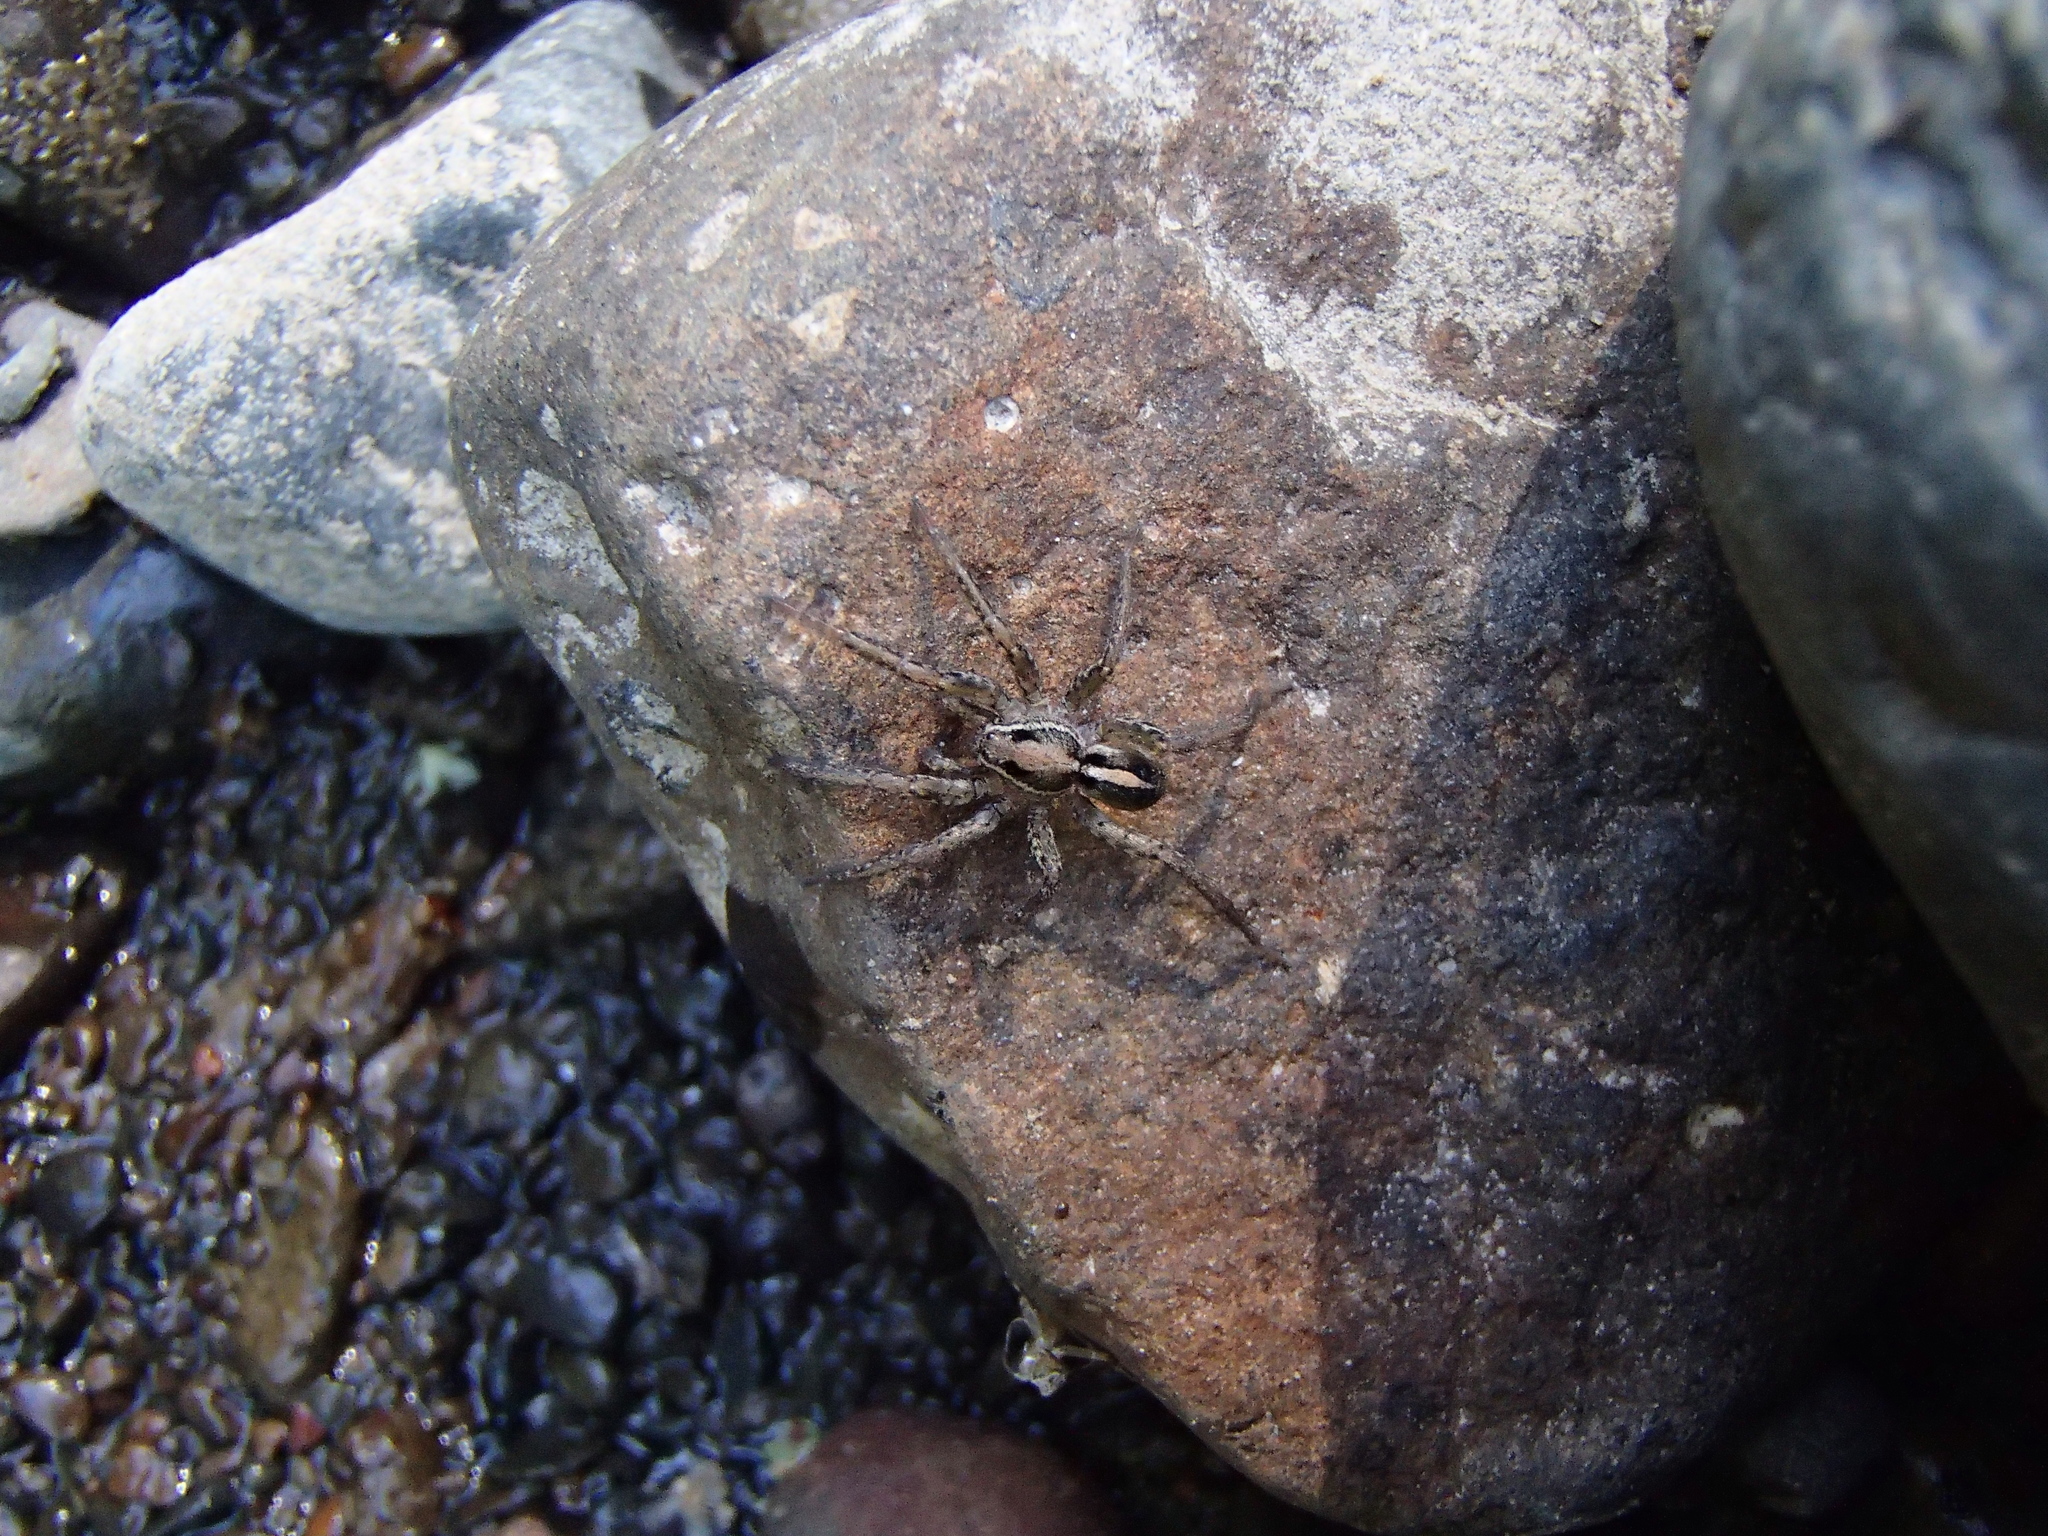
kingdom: Animalia
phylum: Arthropoda
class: Arachnida
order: Araneae
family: Lycosidae
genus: Anoteropsis
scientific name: Anoteropsis hilaris
